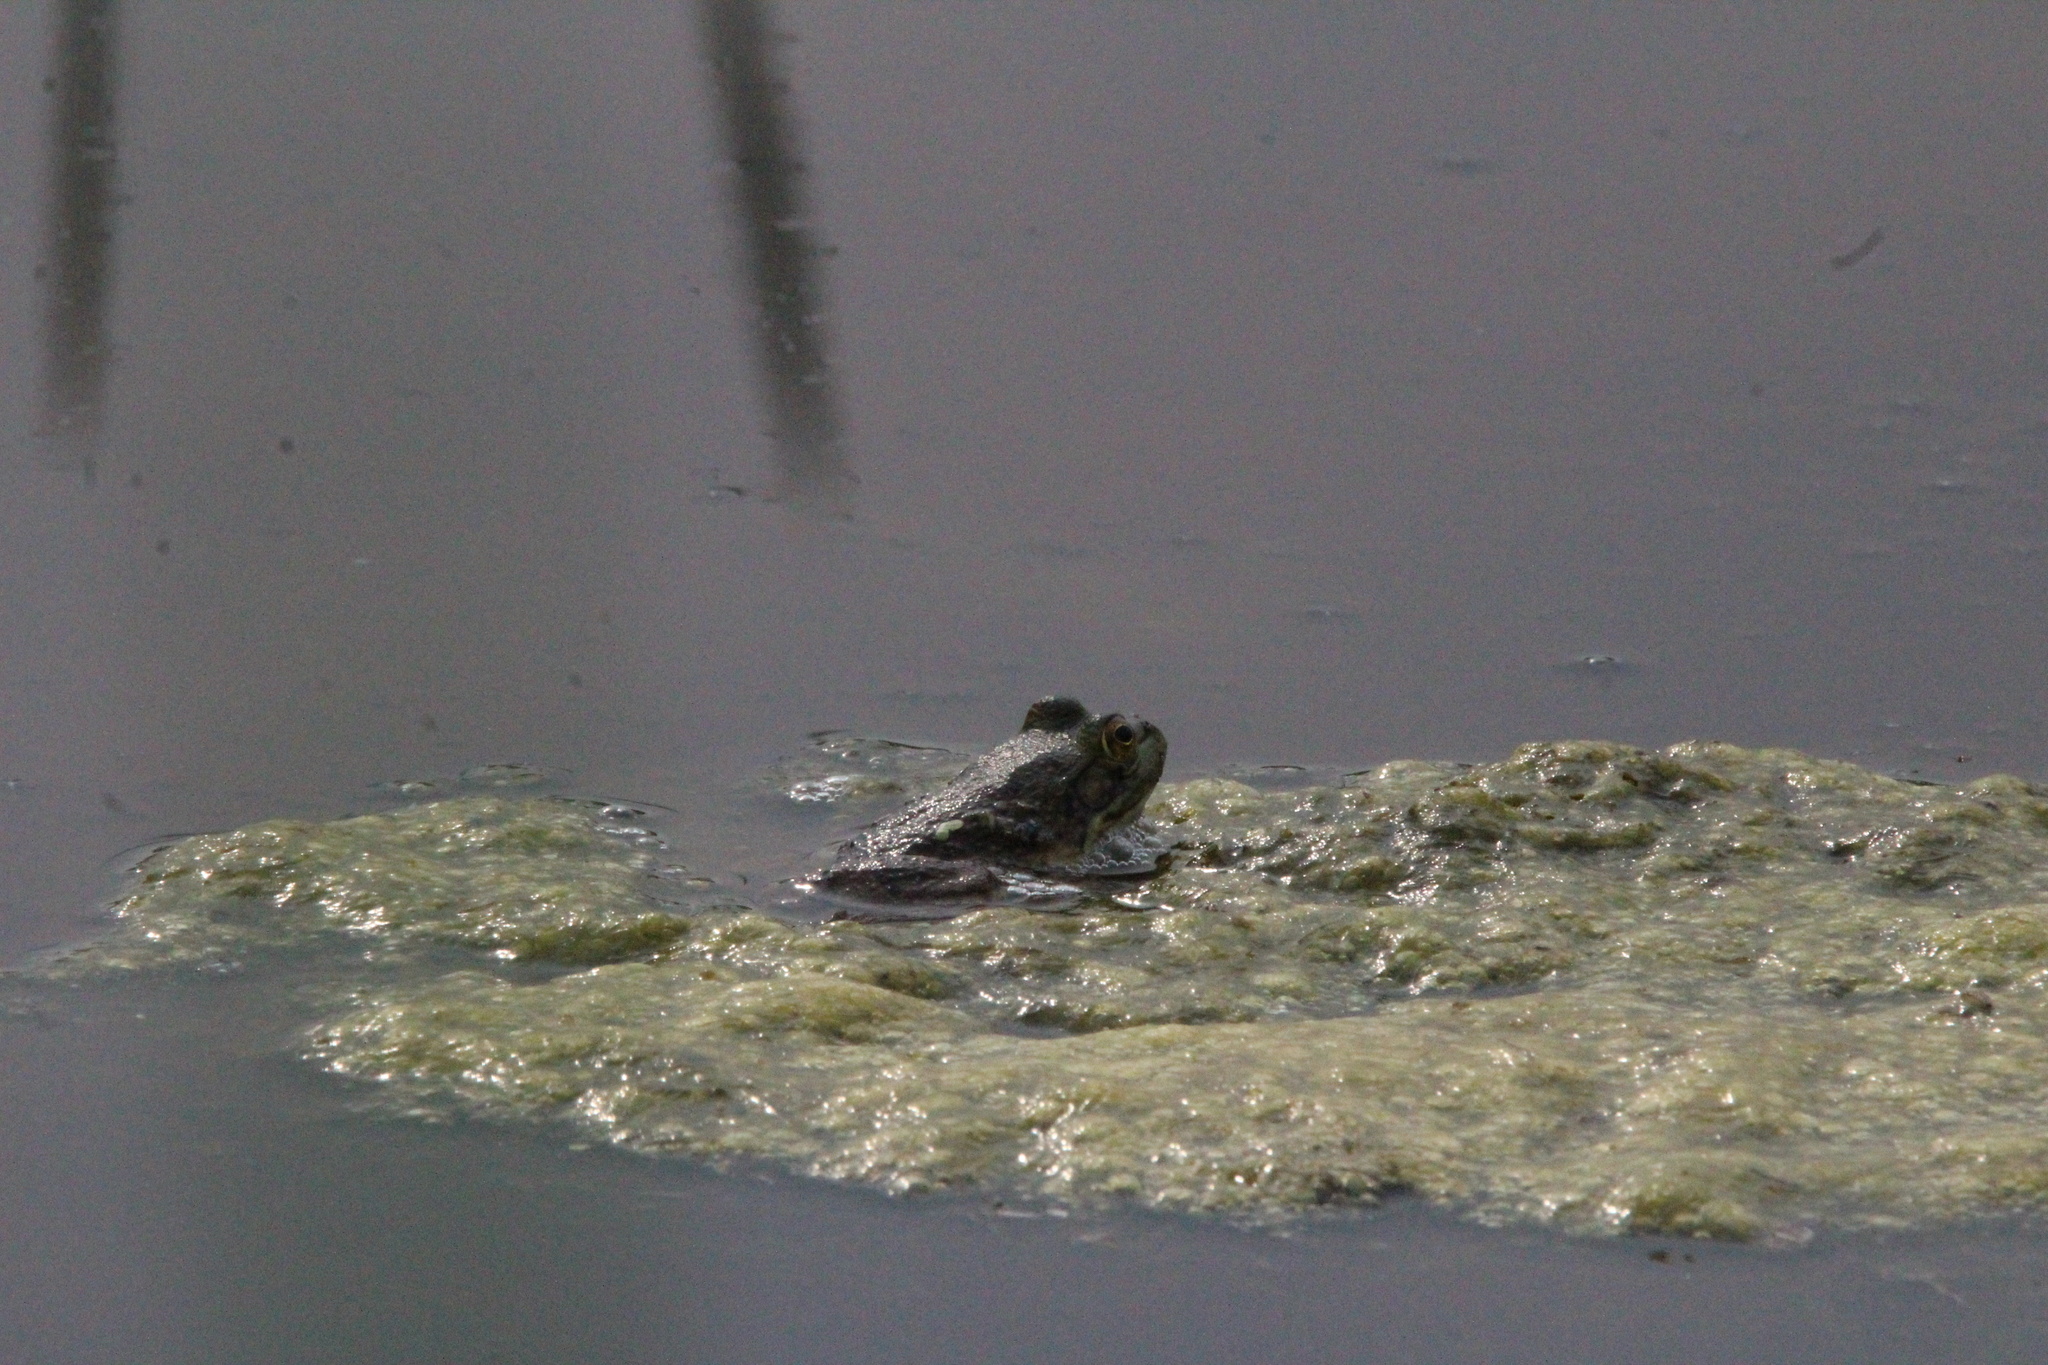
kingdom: Animalia
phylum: Chordata
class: Amphibia
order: Anura
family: Ranidae
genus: Lithobates
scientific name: Lithobates catesbeianus
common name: American bullfrog
